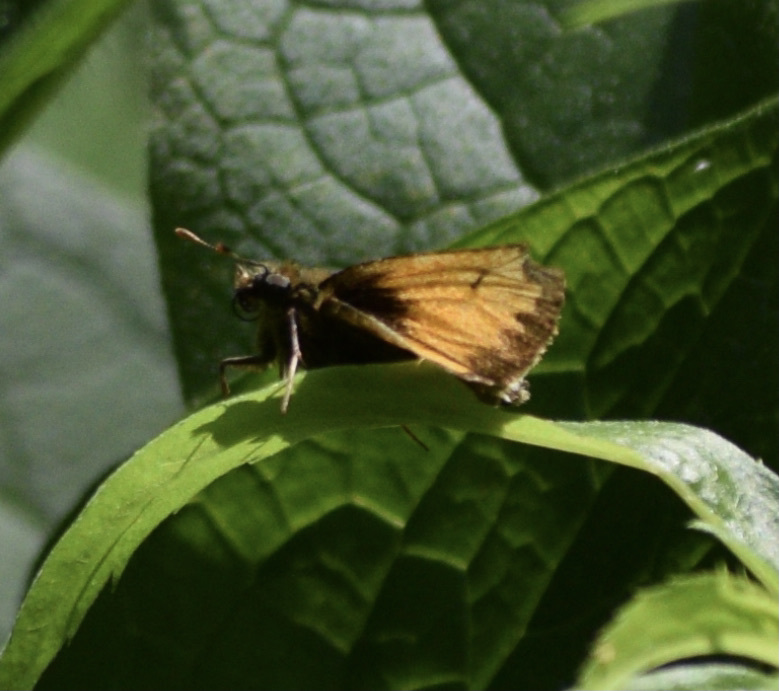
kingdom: Animalia
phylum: Arthropoda
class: Insecta
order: Lepidoptera
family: Hesperiidae
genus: Lon
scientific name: Lon hobomok
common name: Hobomok skipper
